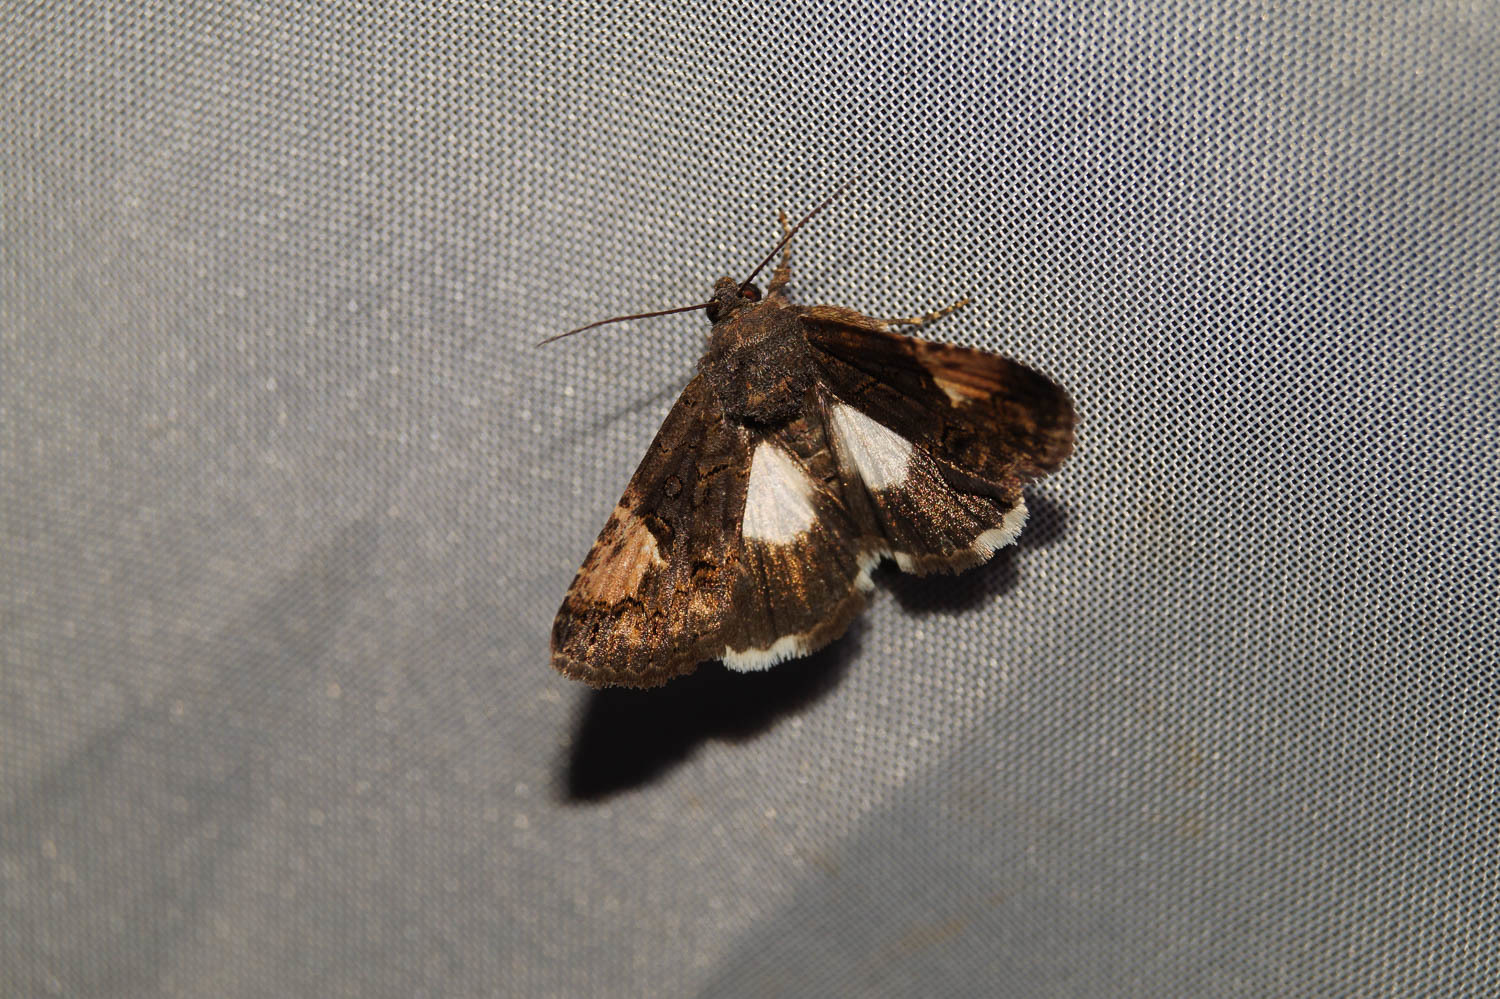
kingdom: Animalia
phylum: Arthropoda
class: Insecta
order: Lepidoptera
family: Noctuidae
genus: Aedia
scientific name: Aedia funesta
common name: The druid
